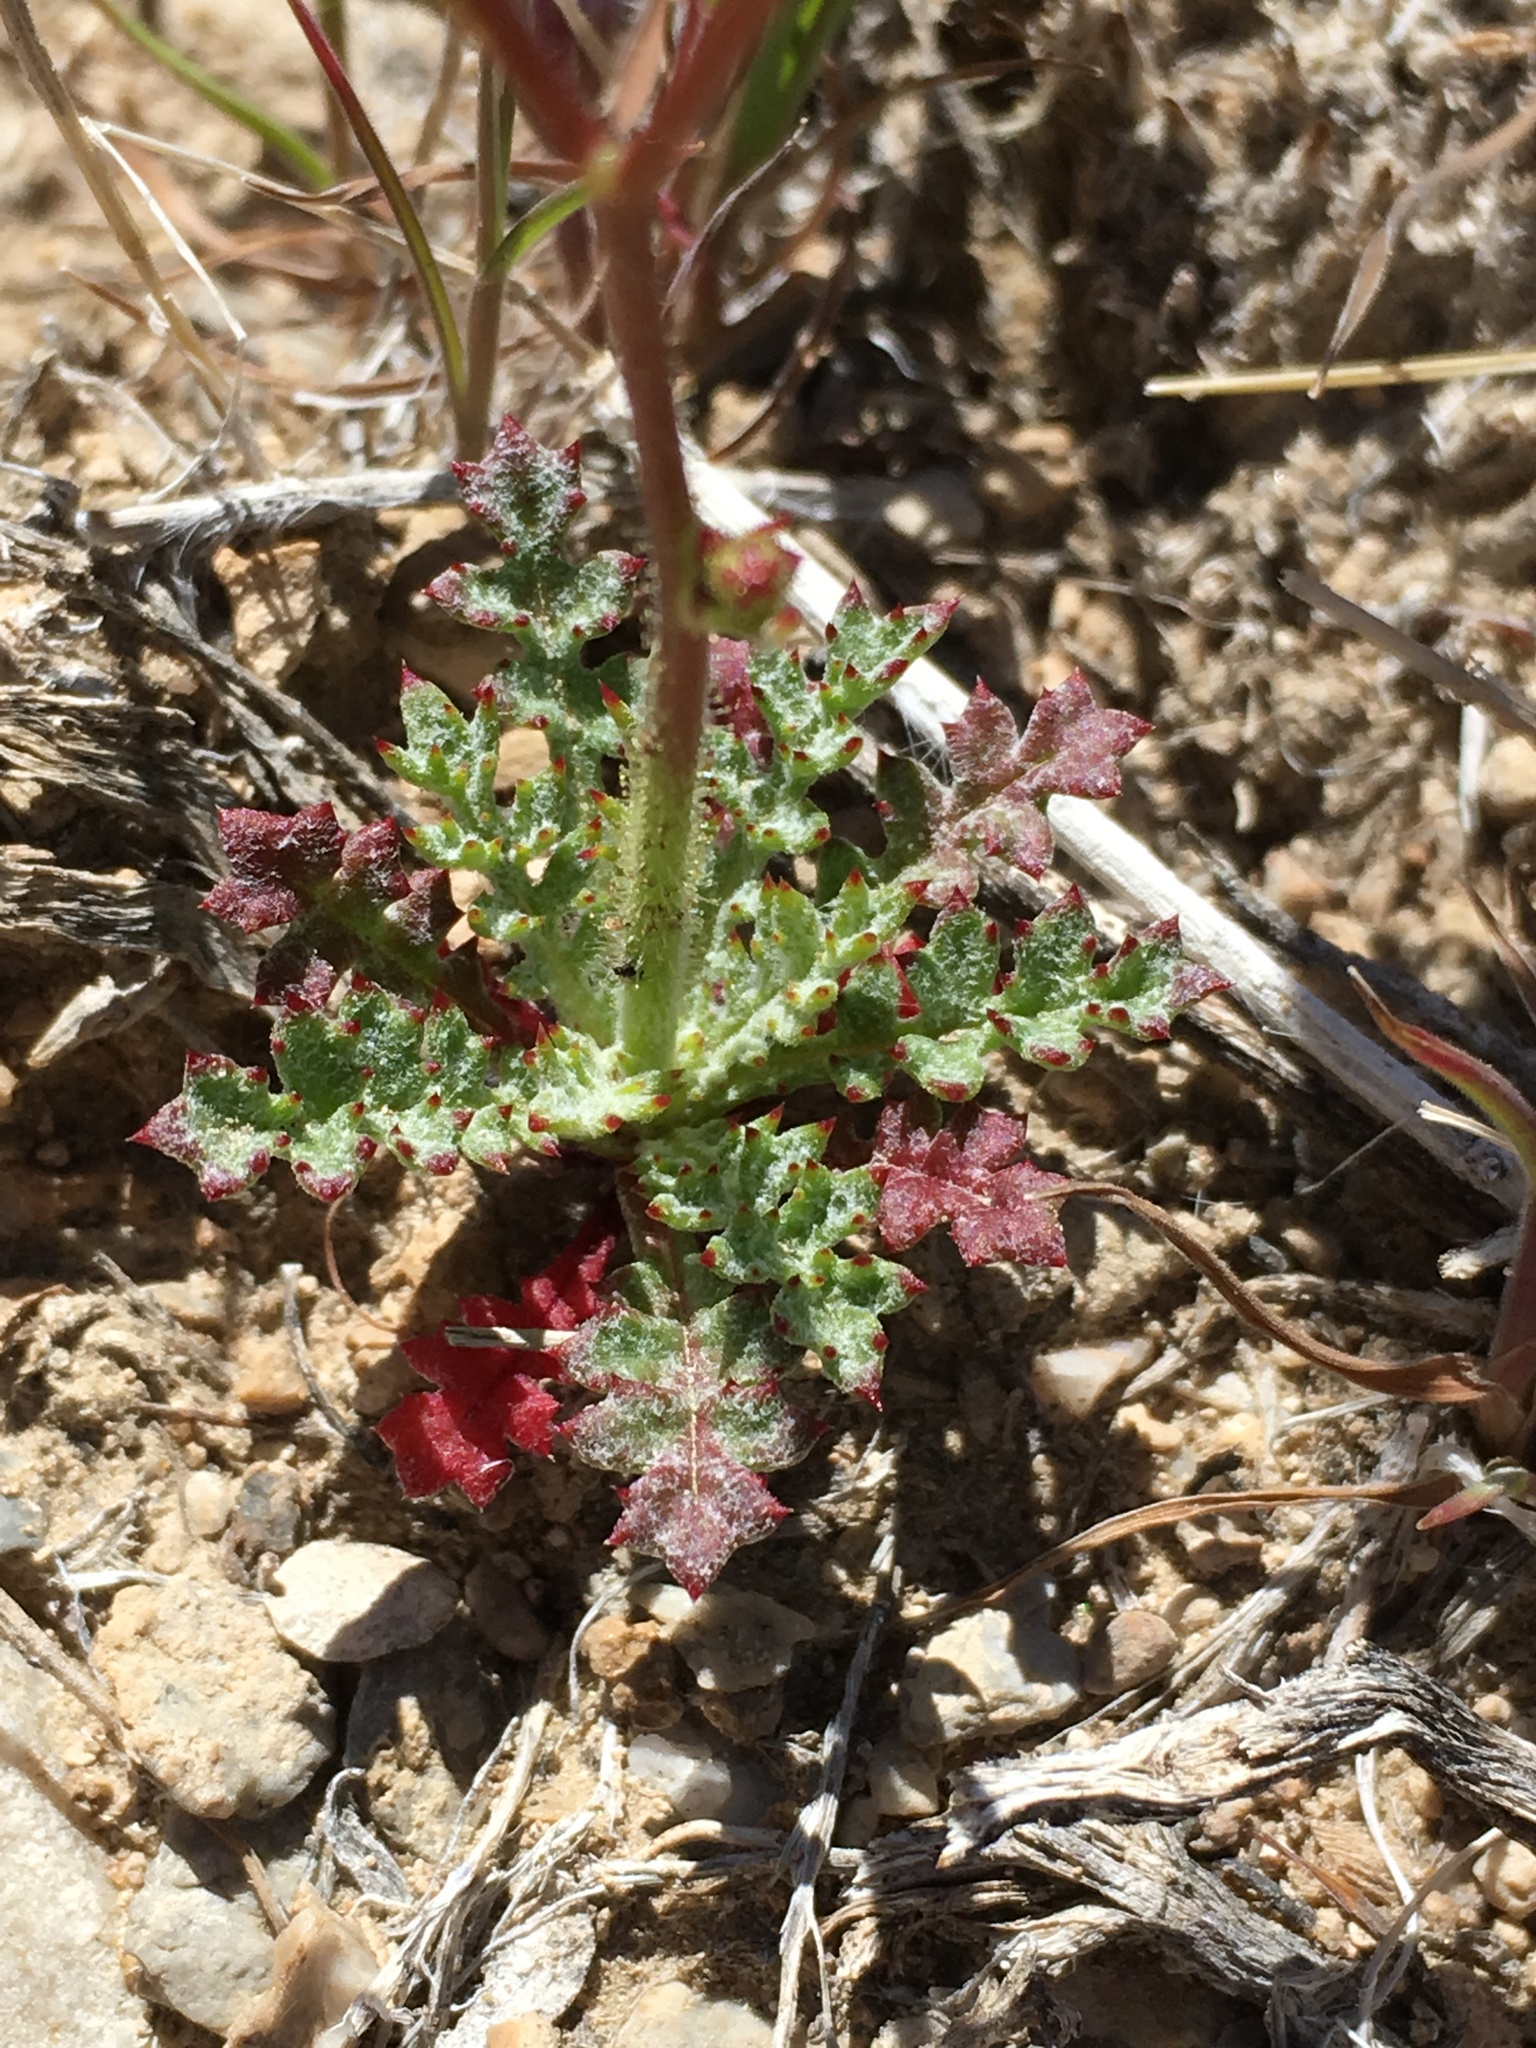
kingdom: Plantae
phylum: Tracheophyta
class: Magnoliopsida
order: Ericales
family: Polemoniaceae
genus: Gilia
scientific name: Gilia cana
